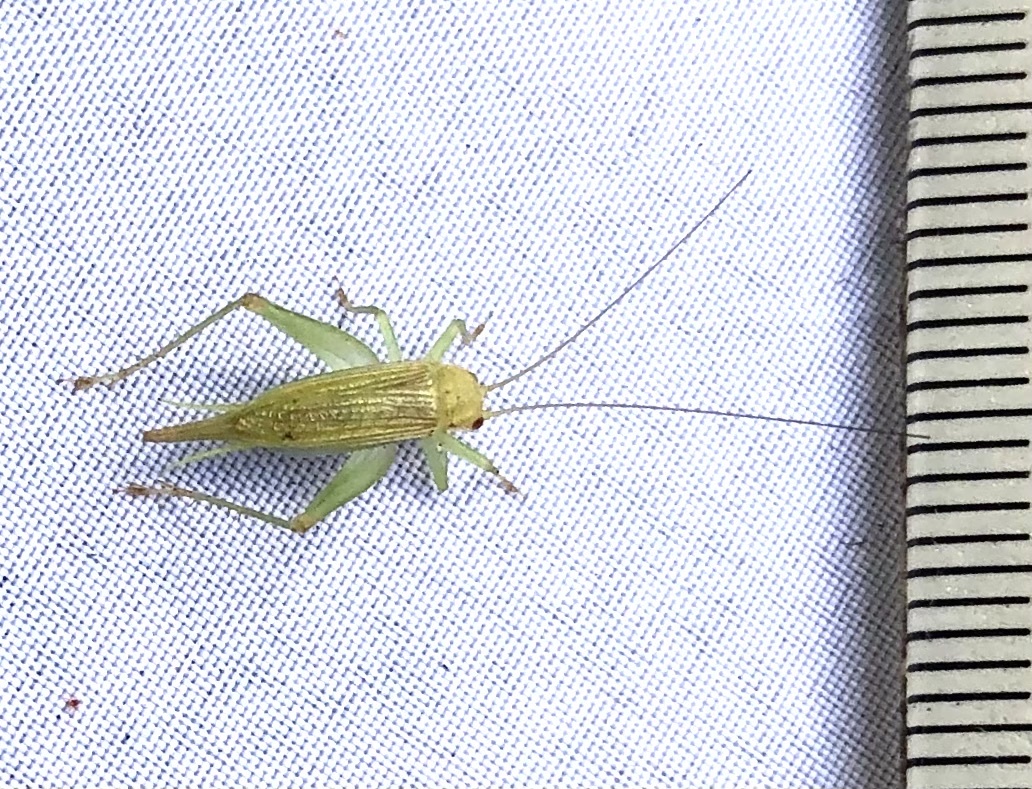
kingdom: Animalia
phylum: Arthropoda
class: Insecta
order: Orthoptera
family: Trigonidiidae
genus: Cyrtoxipha
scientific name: Cyrtoxipha columbiana
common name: Columbian trig
